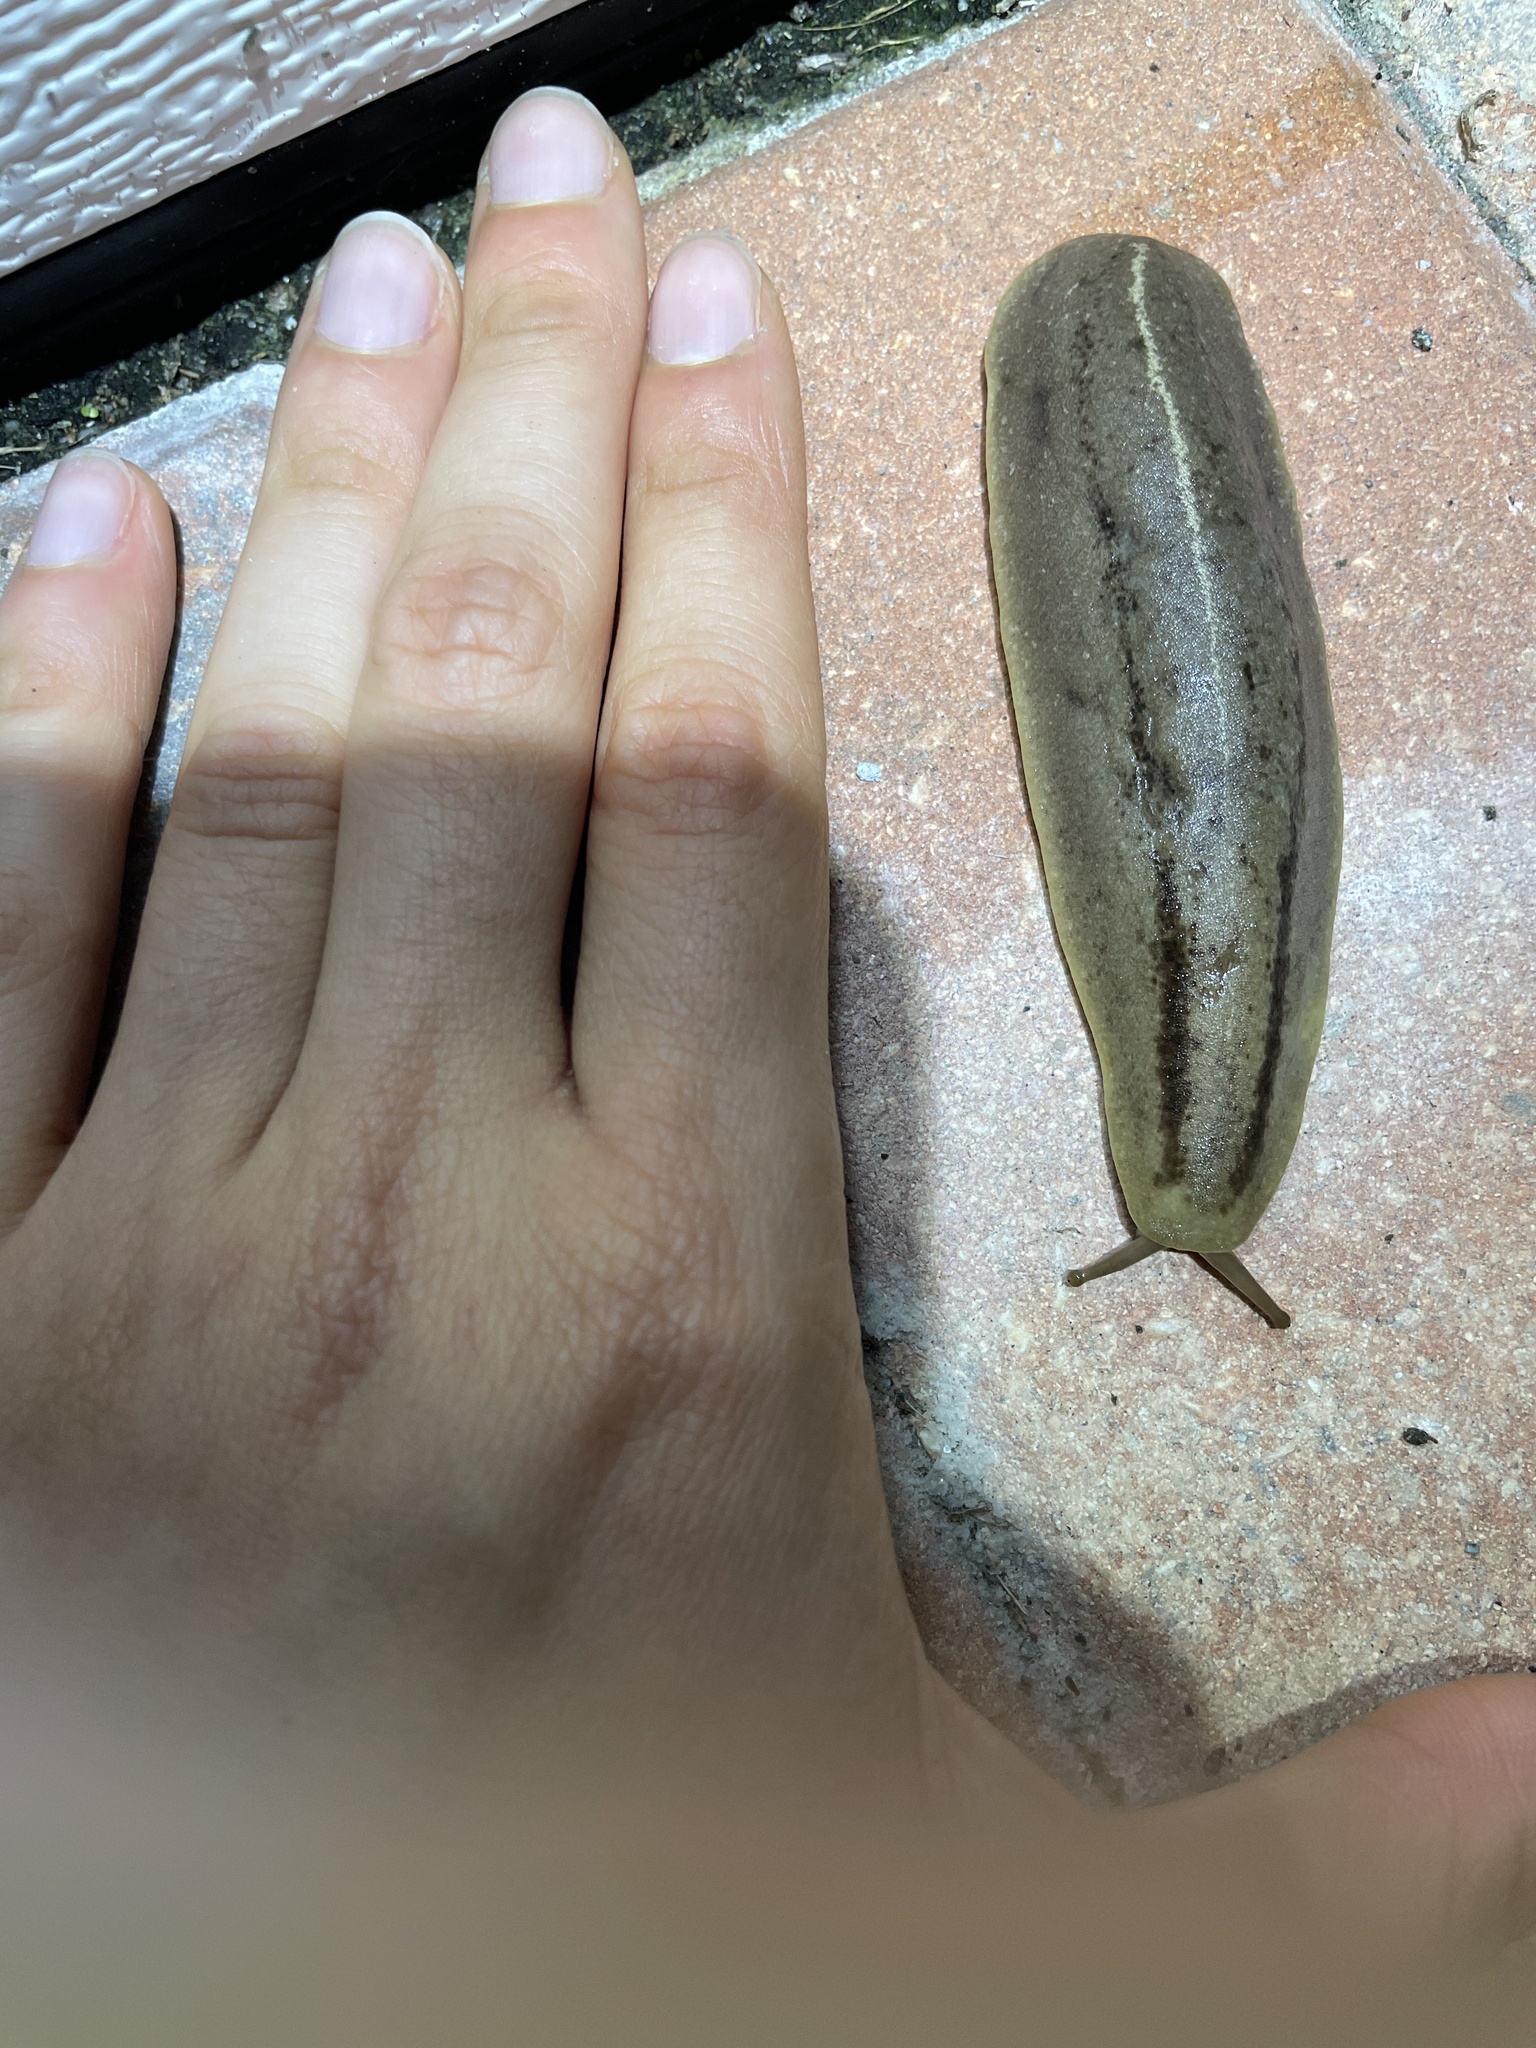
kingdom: Animalia
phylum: Mollusca
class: Gastropoda
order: Systellommatophora
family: Veronicellidae
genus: Leidyula
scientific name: Leidyula floridana
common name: Florida leatherleaf
